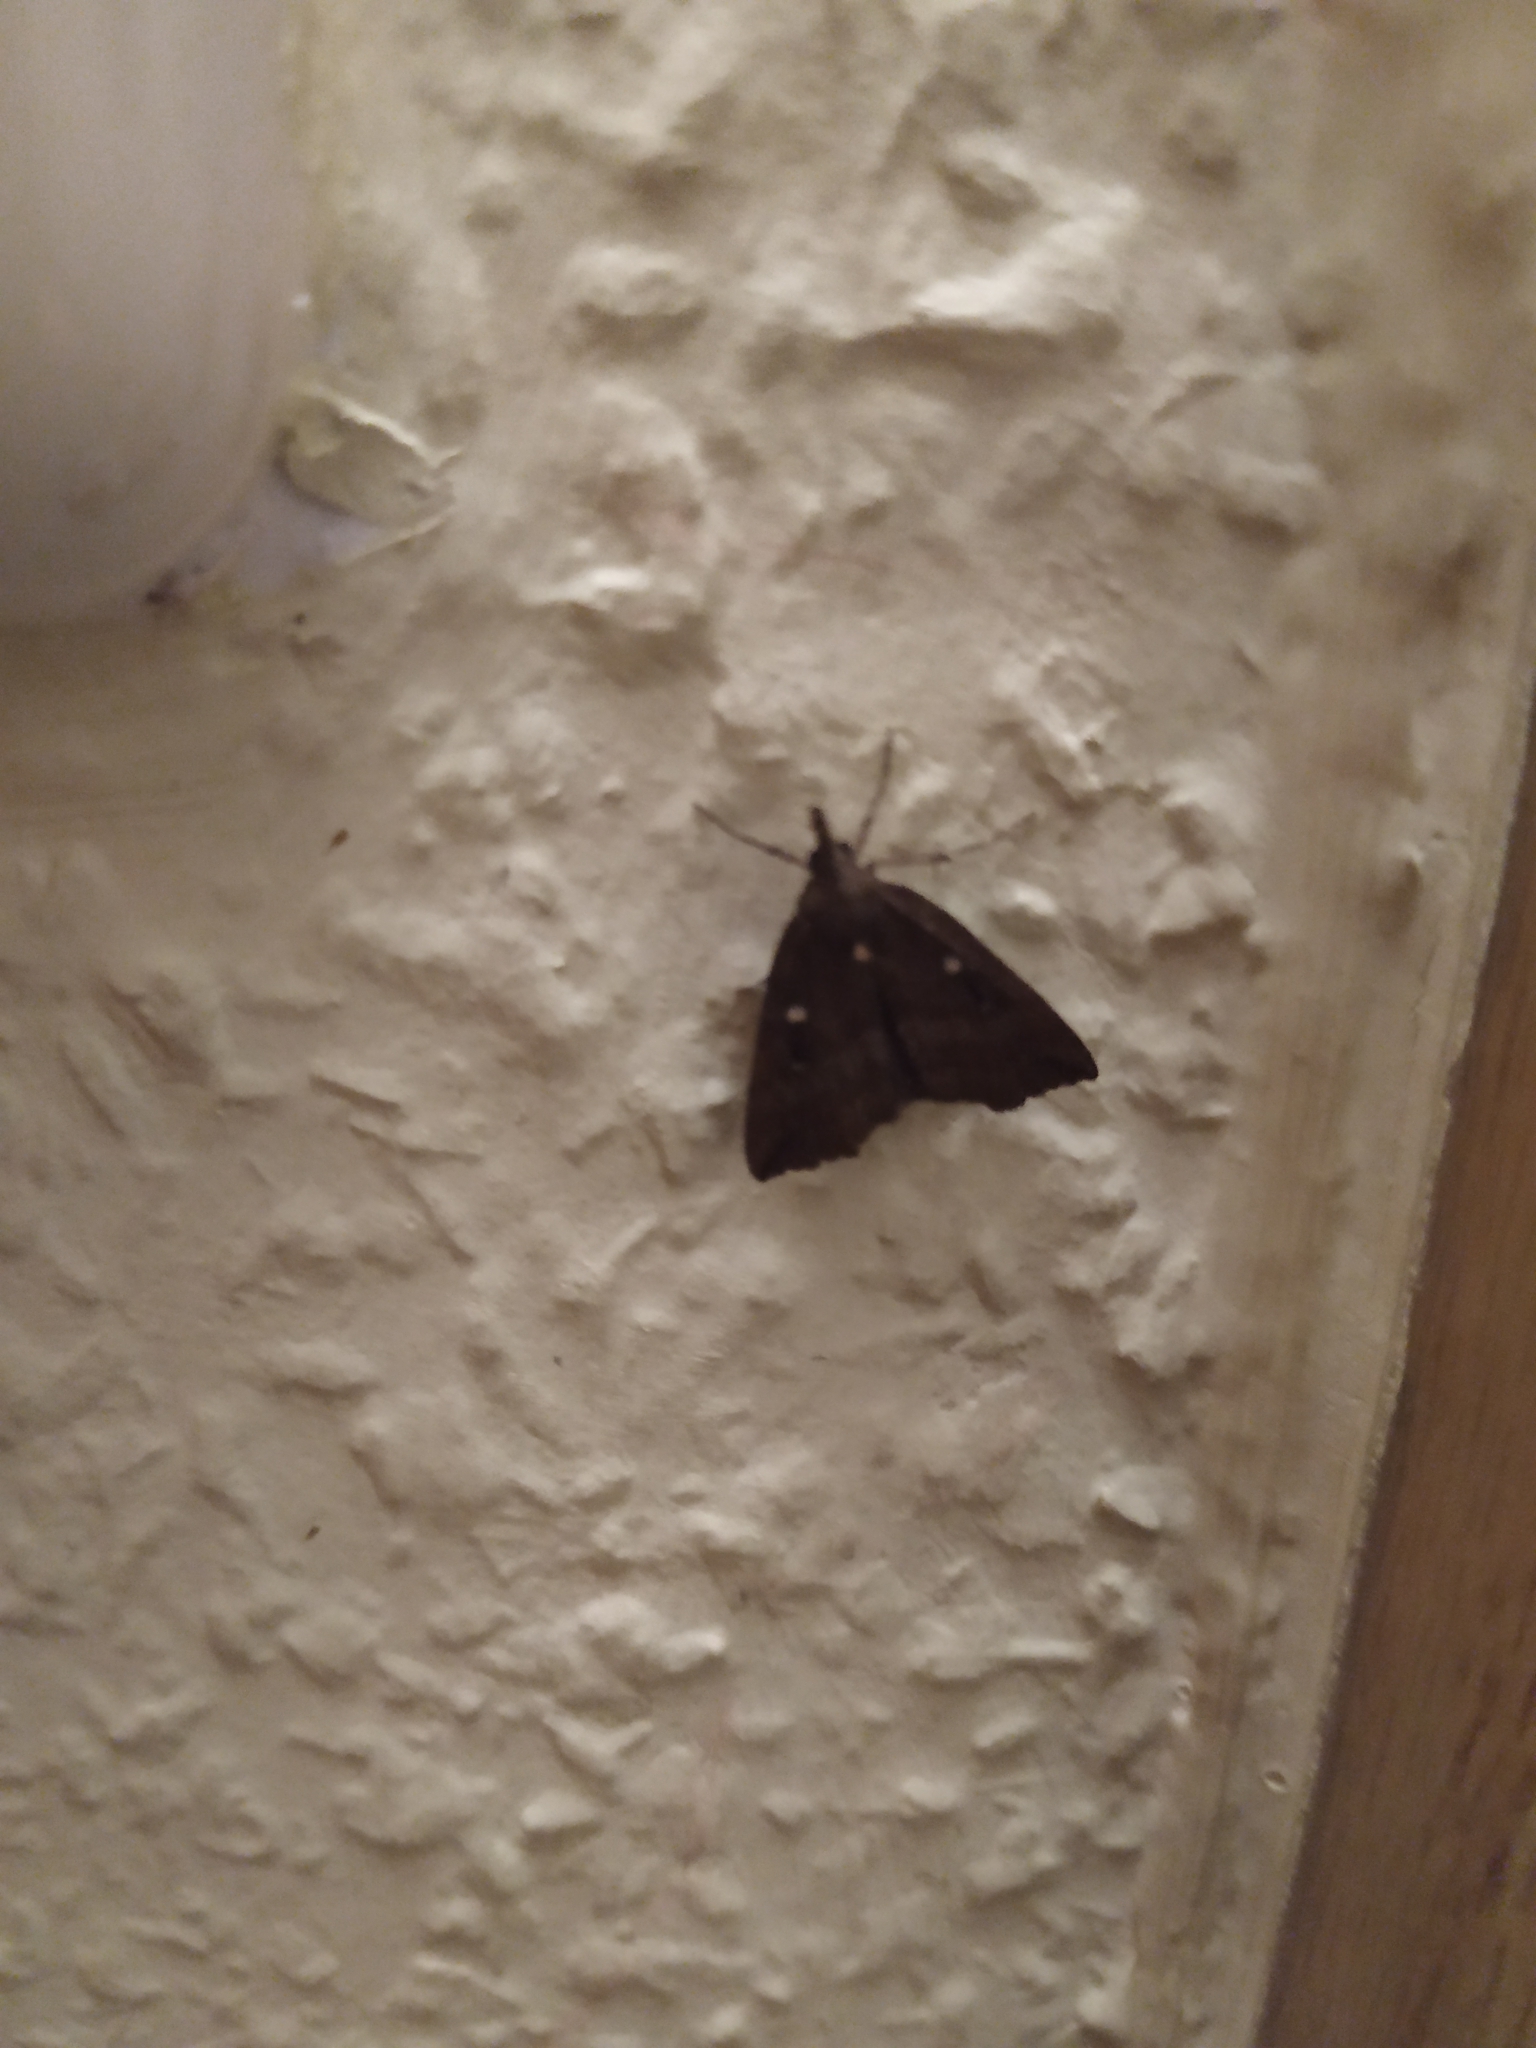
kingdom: Animalia
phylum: Arthropoda
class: Insecta
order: Lepidoptera
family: Erebidae
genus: Hypena
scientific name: Hypena rostralis
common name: Buttoned snout
